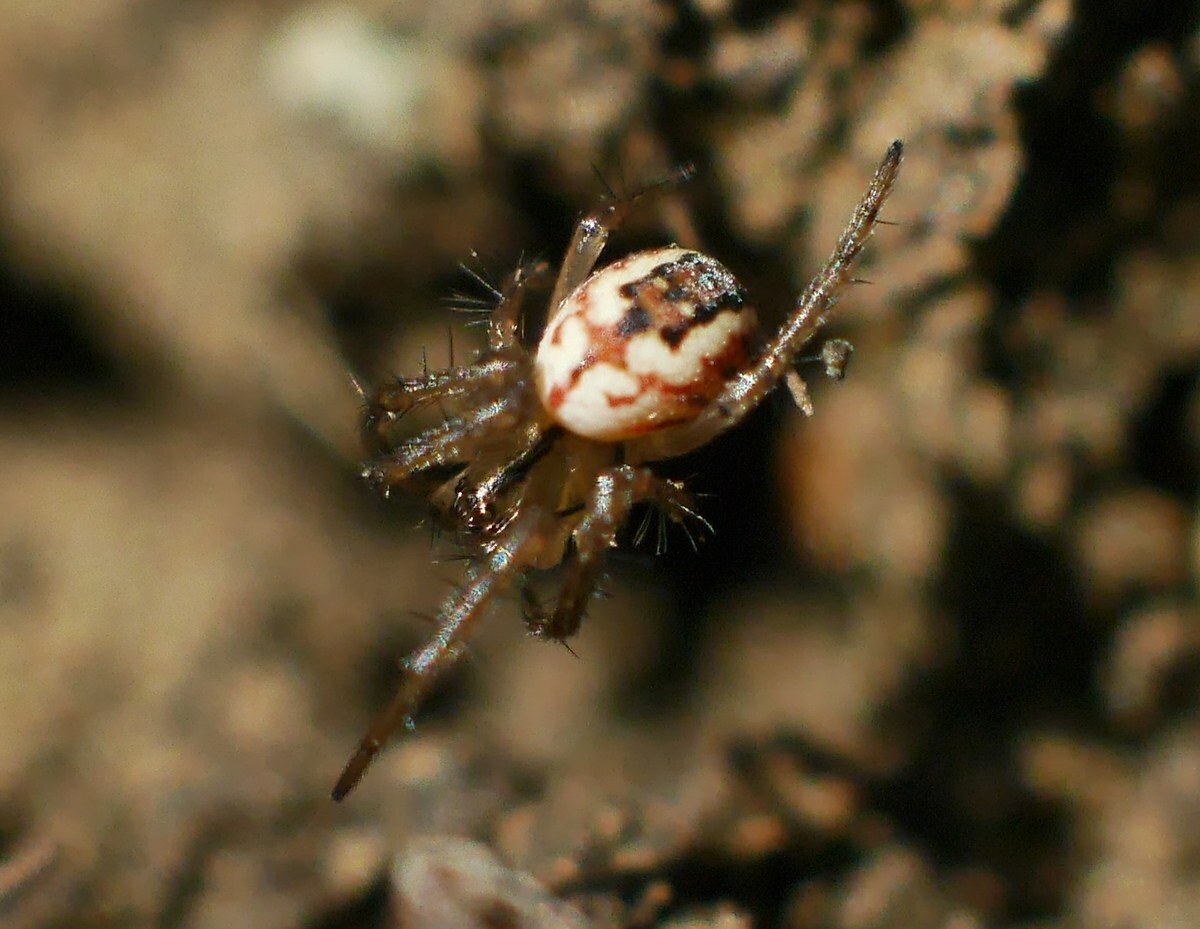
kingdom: Animalia
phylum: Arthropoda
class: Arachnida
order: Araneae
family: Araneidae
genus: Mangora
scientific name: Mangora acalypha
